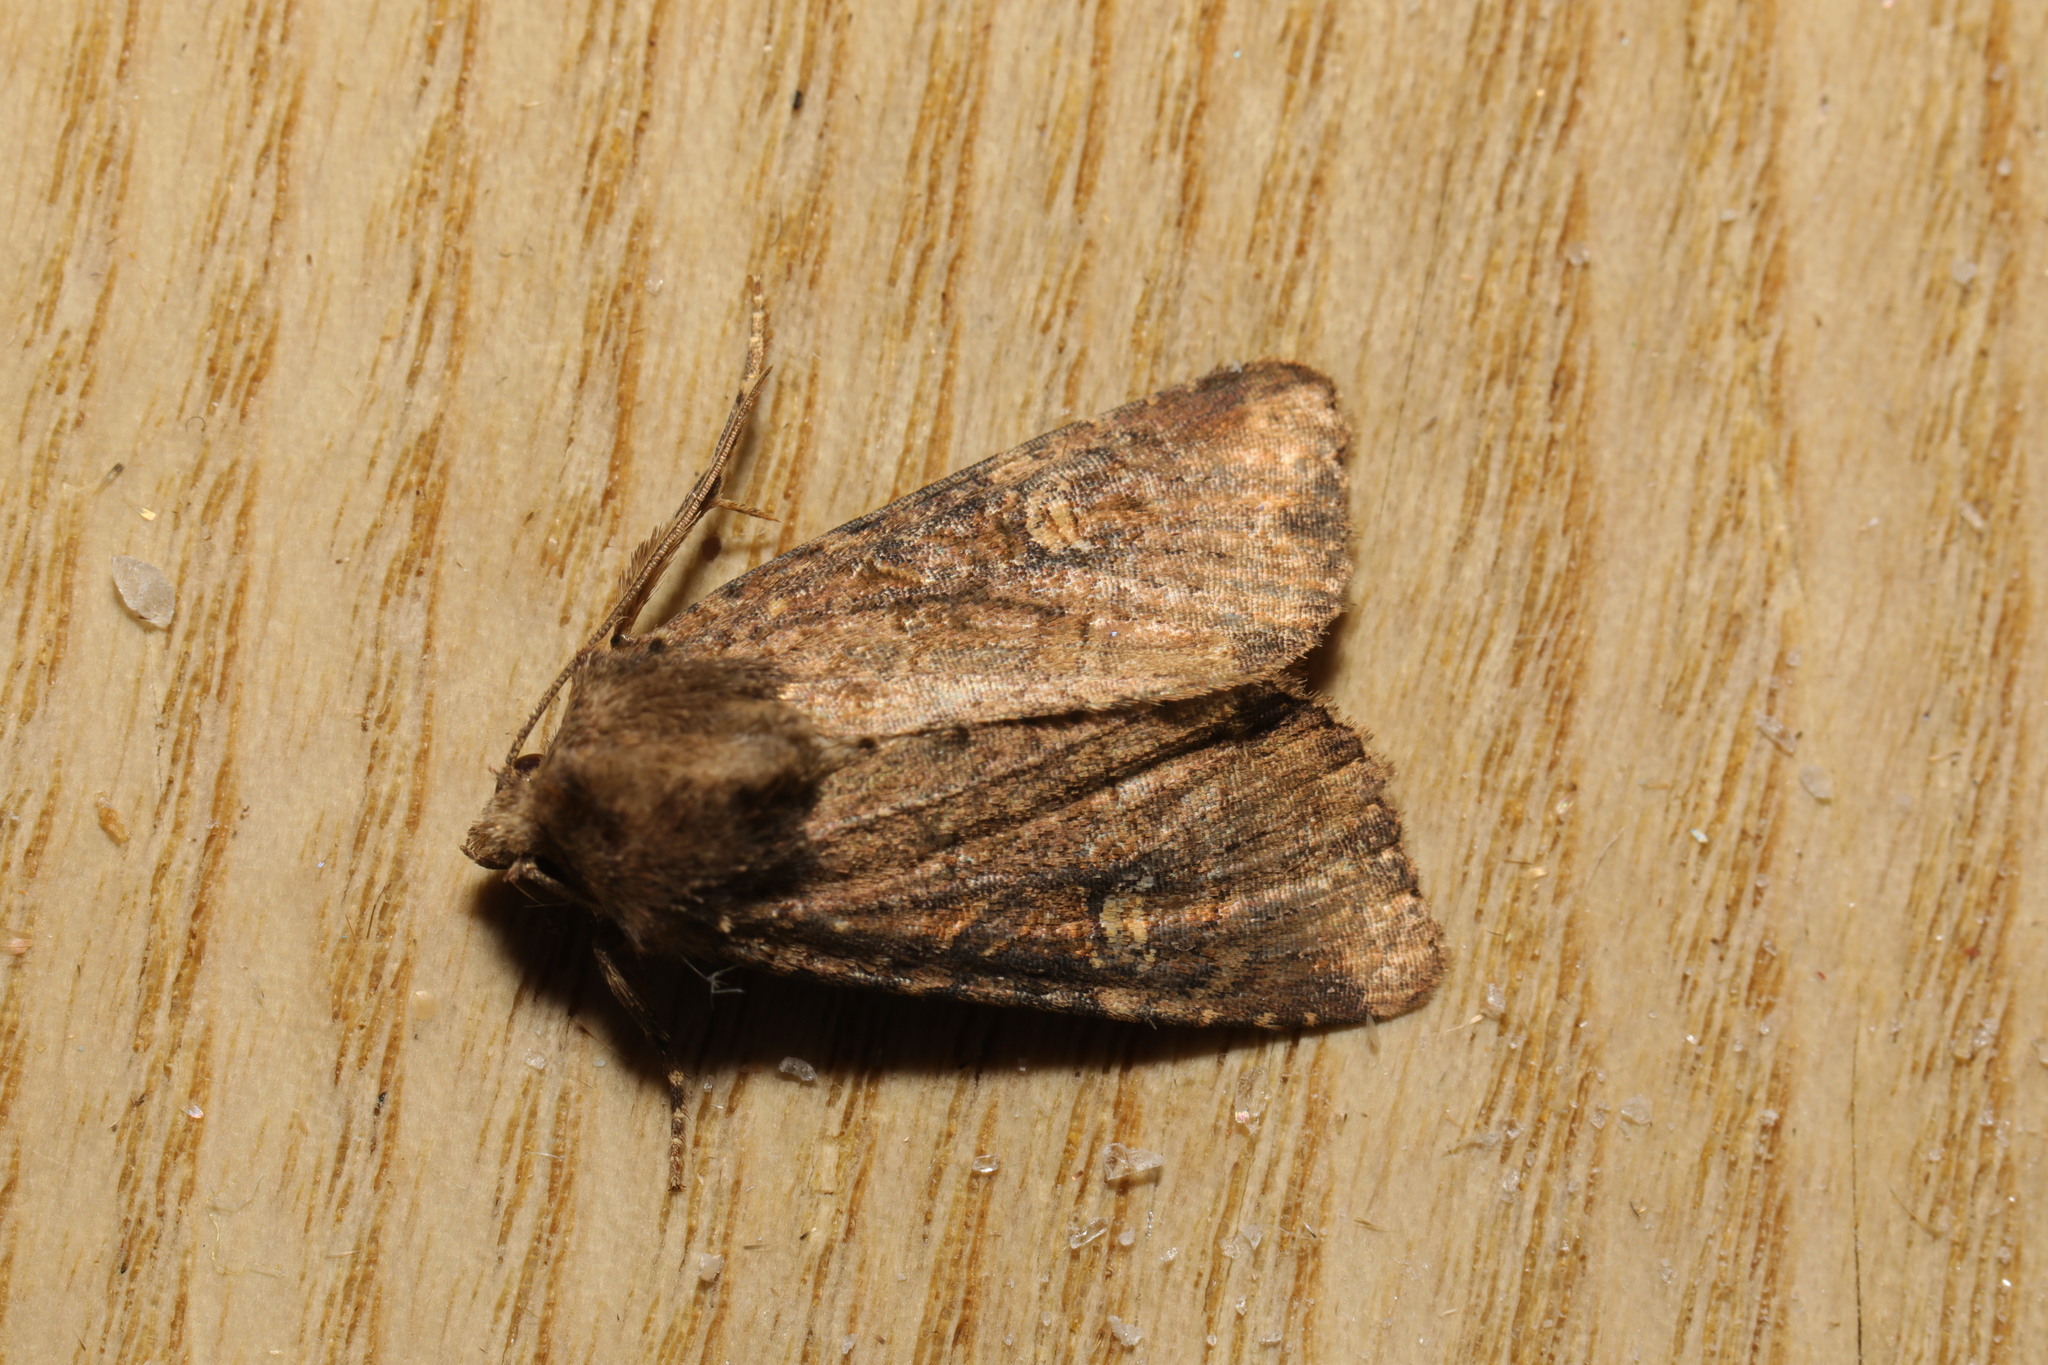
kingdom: Animalia
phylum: Arthropoda
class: Insecta
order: Lepidoptera
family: Noctuidae
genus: Mesapamea
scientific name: Mesapamea
